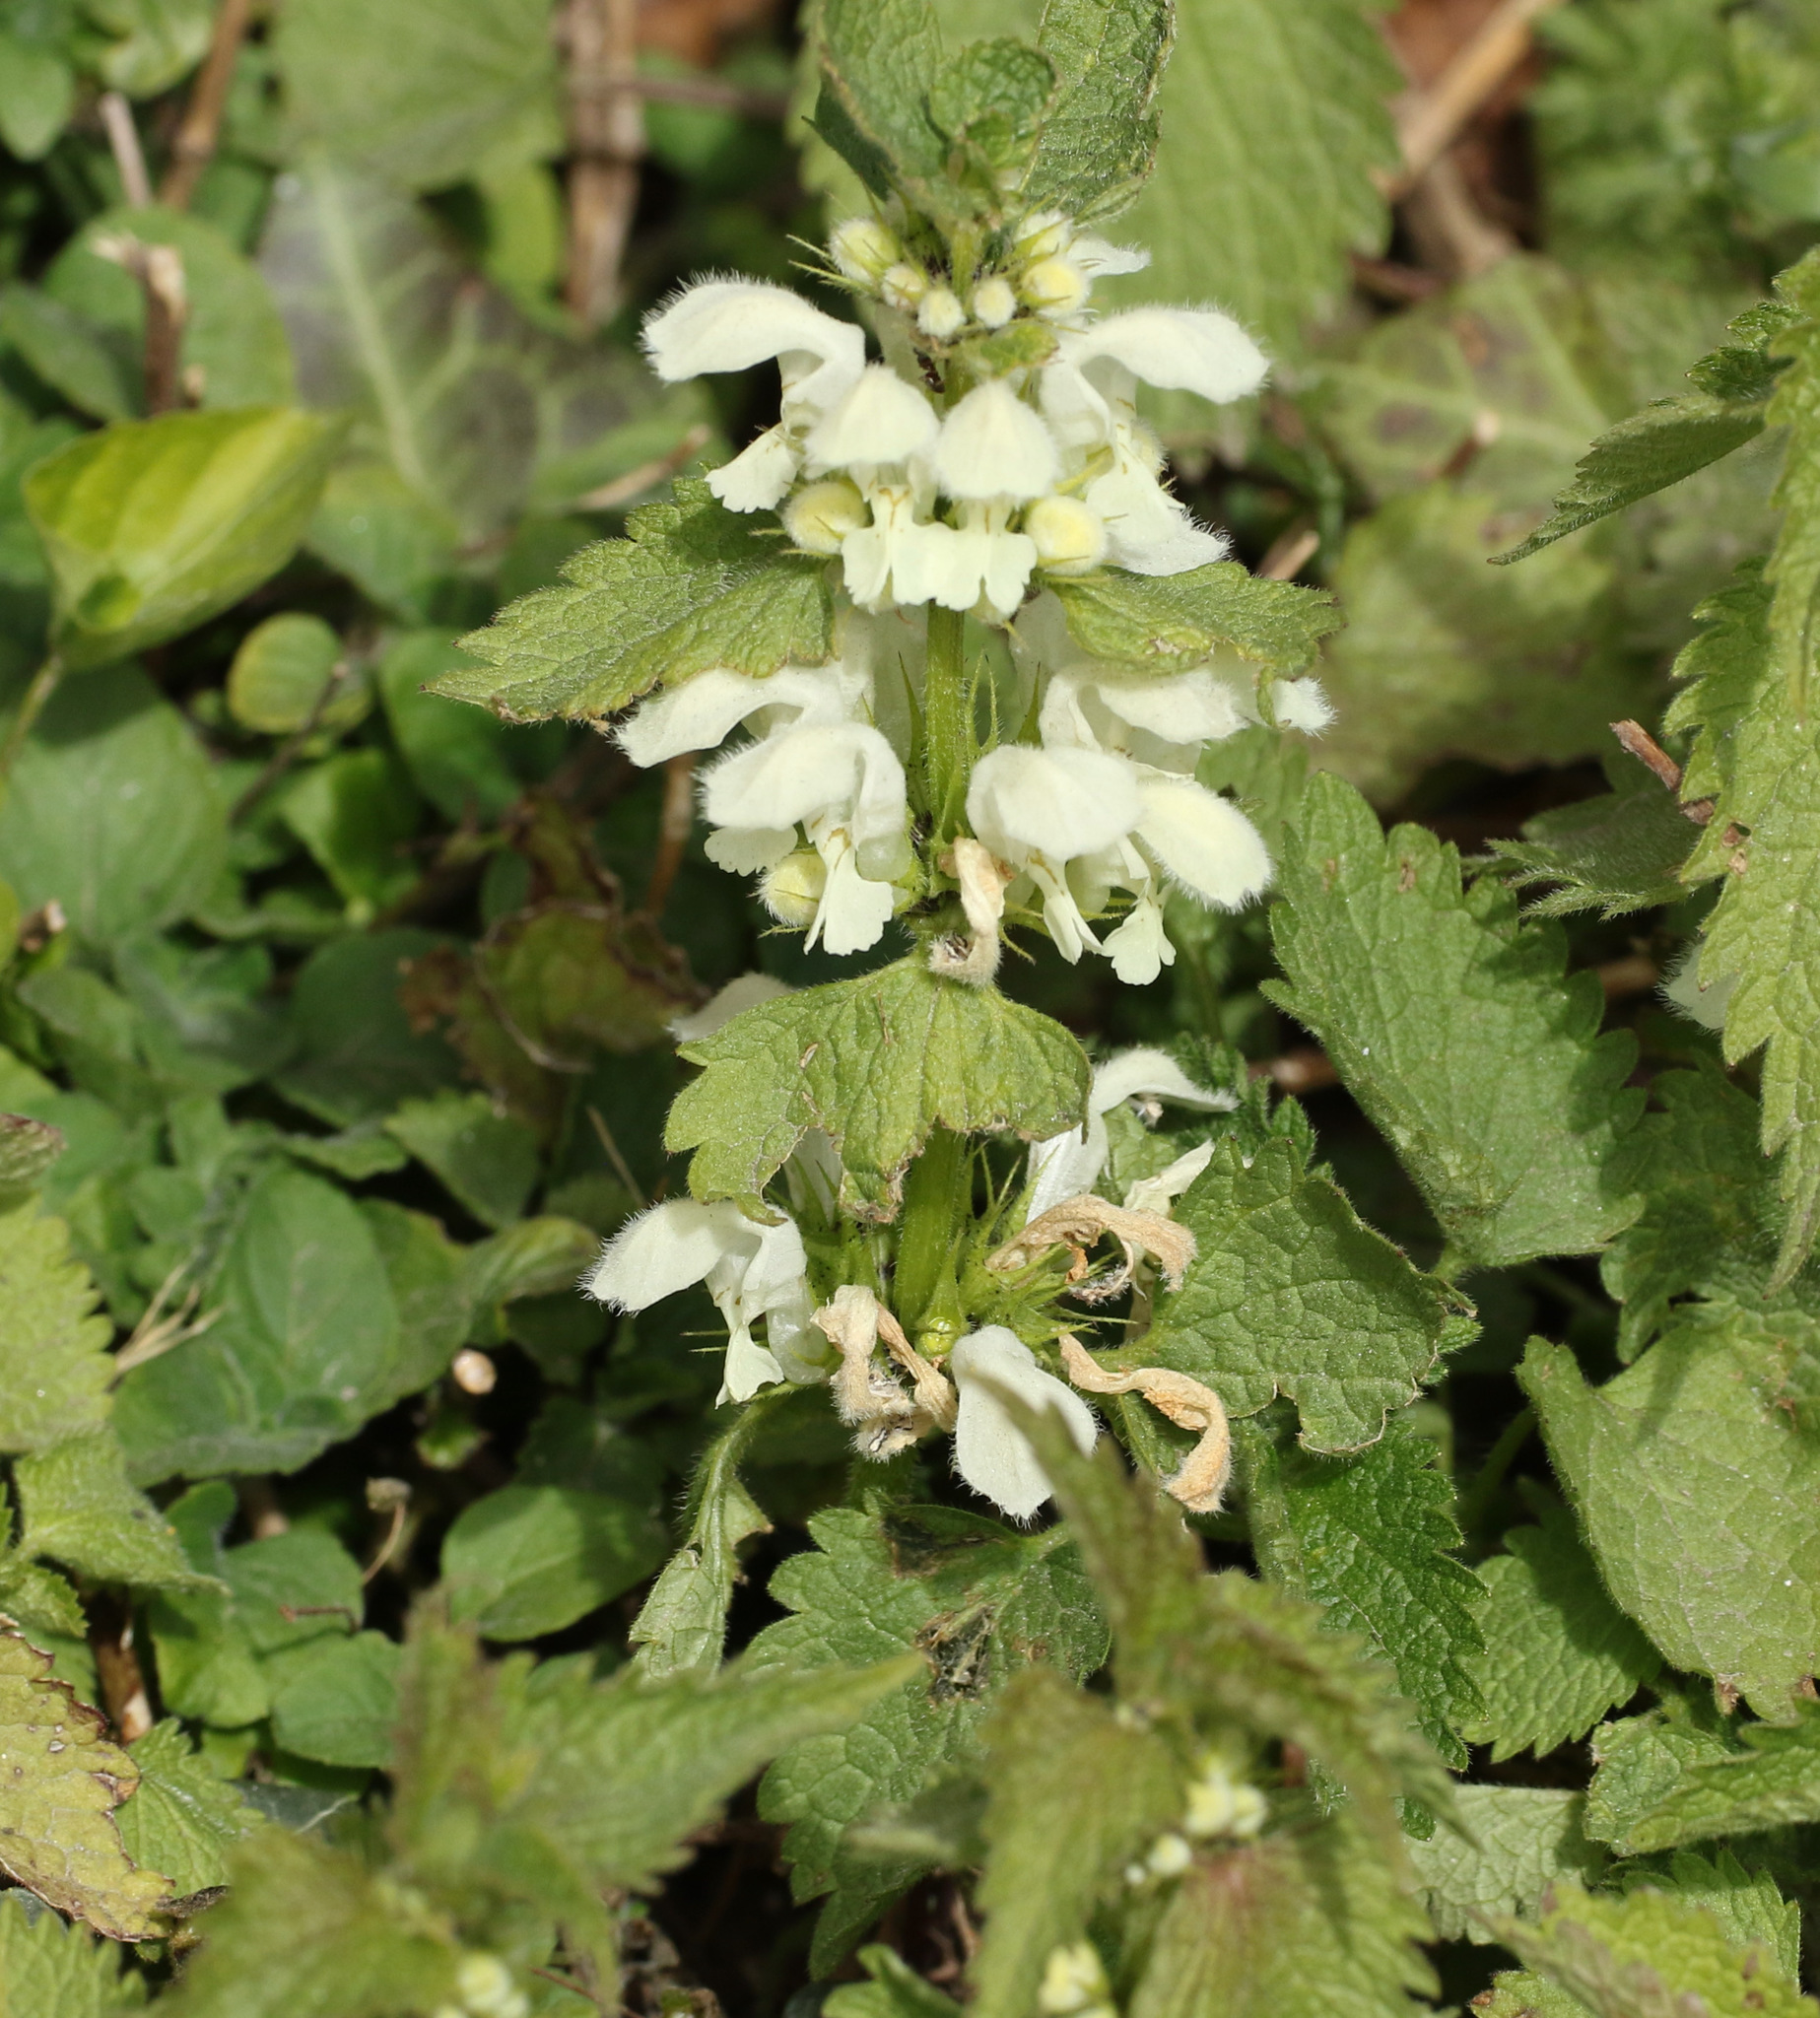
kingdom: Plantae
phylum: Tracheophyta
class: Magnoliopsida
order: Lamiales
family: Lamiaceae
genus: Lamium
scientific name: Lamium album
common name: White dead-nettle
